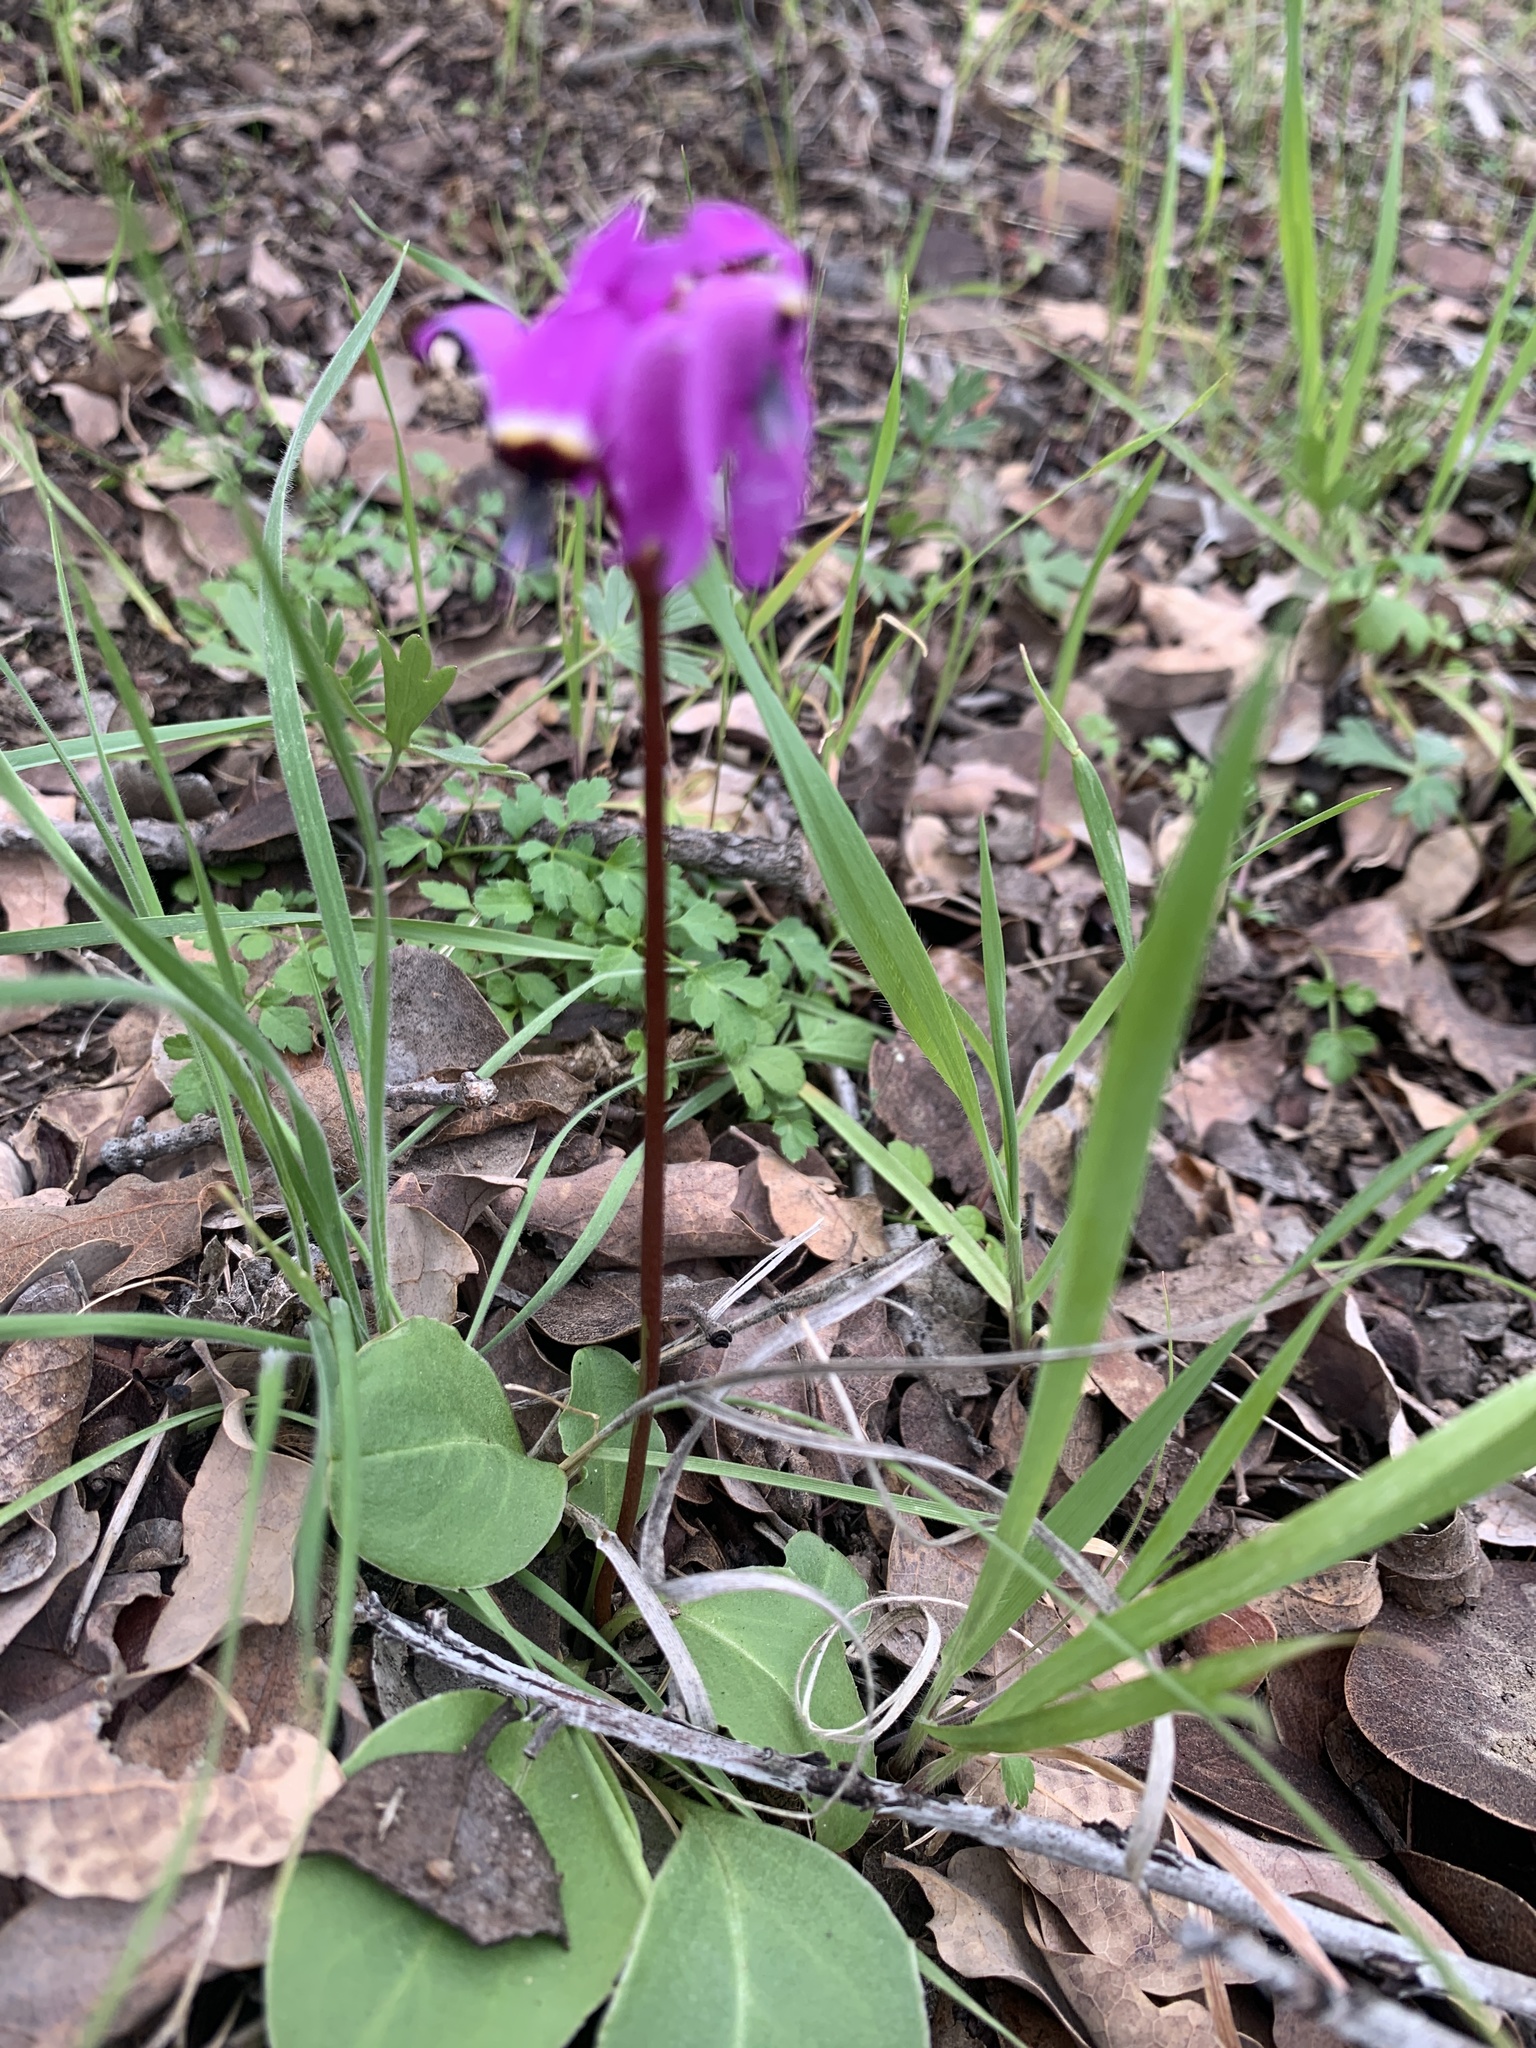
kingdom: Plantae
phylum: Tracheophyta
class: Magnoliopsida
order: Ericales
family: Primulaceae
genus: Dodecatheon
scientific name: Dodecatheon hendersonii
